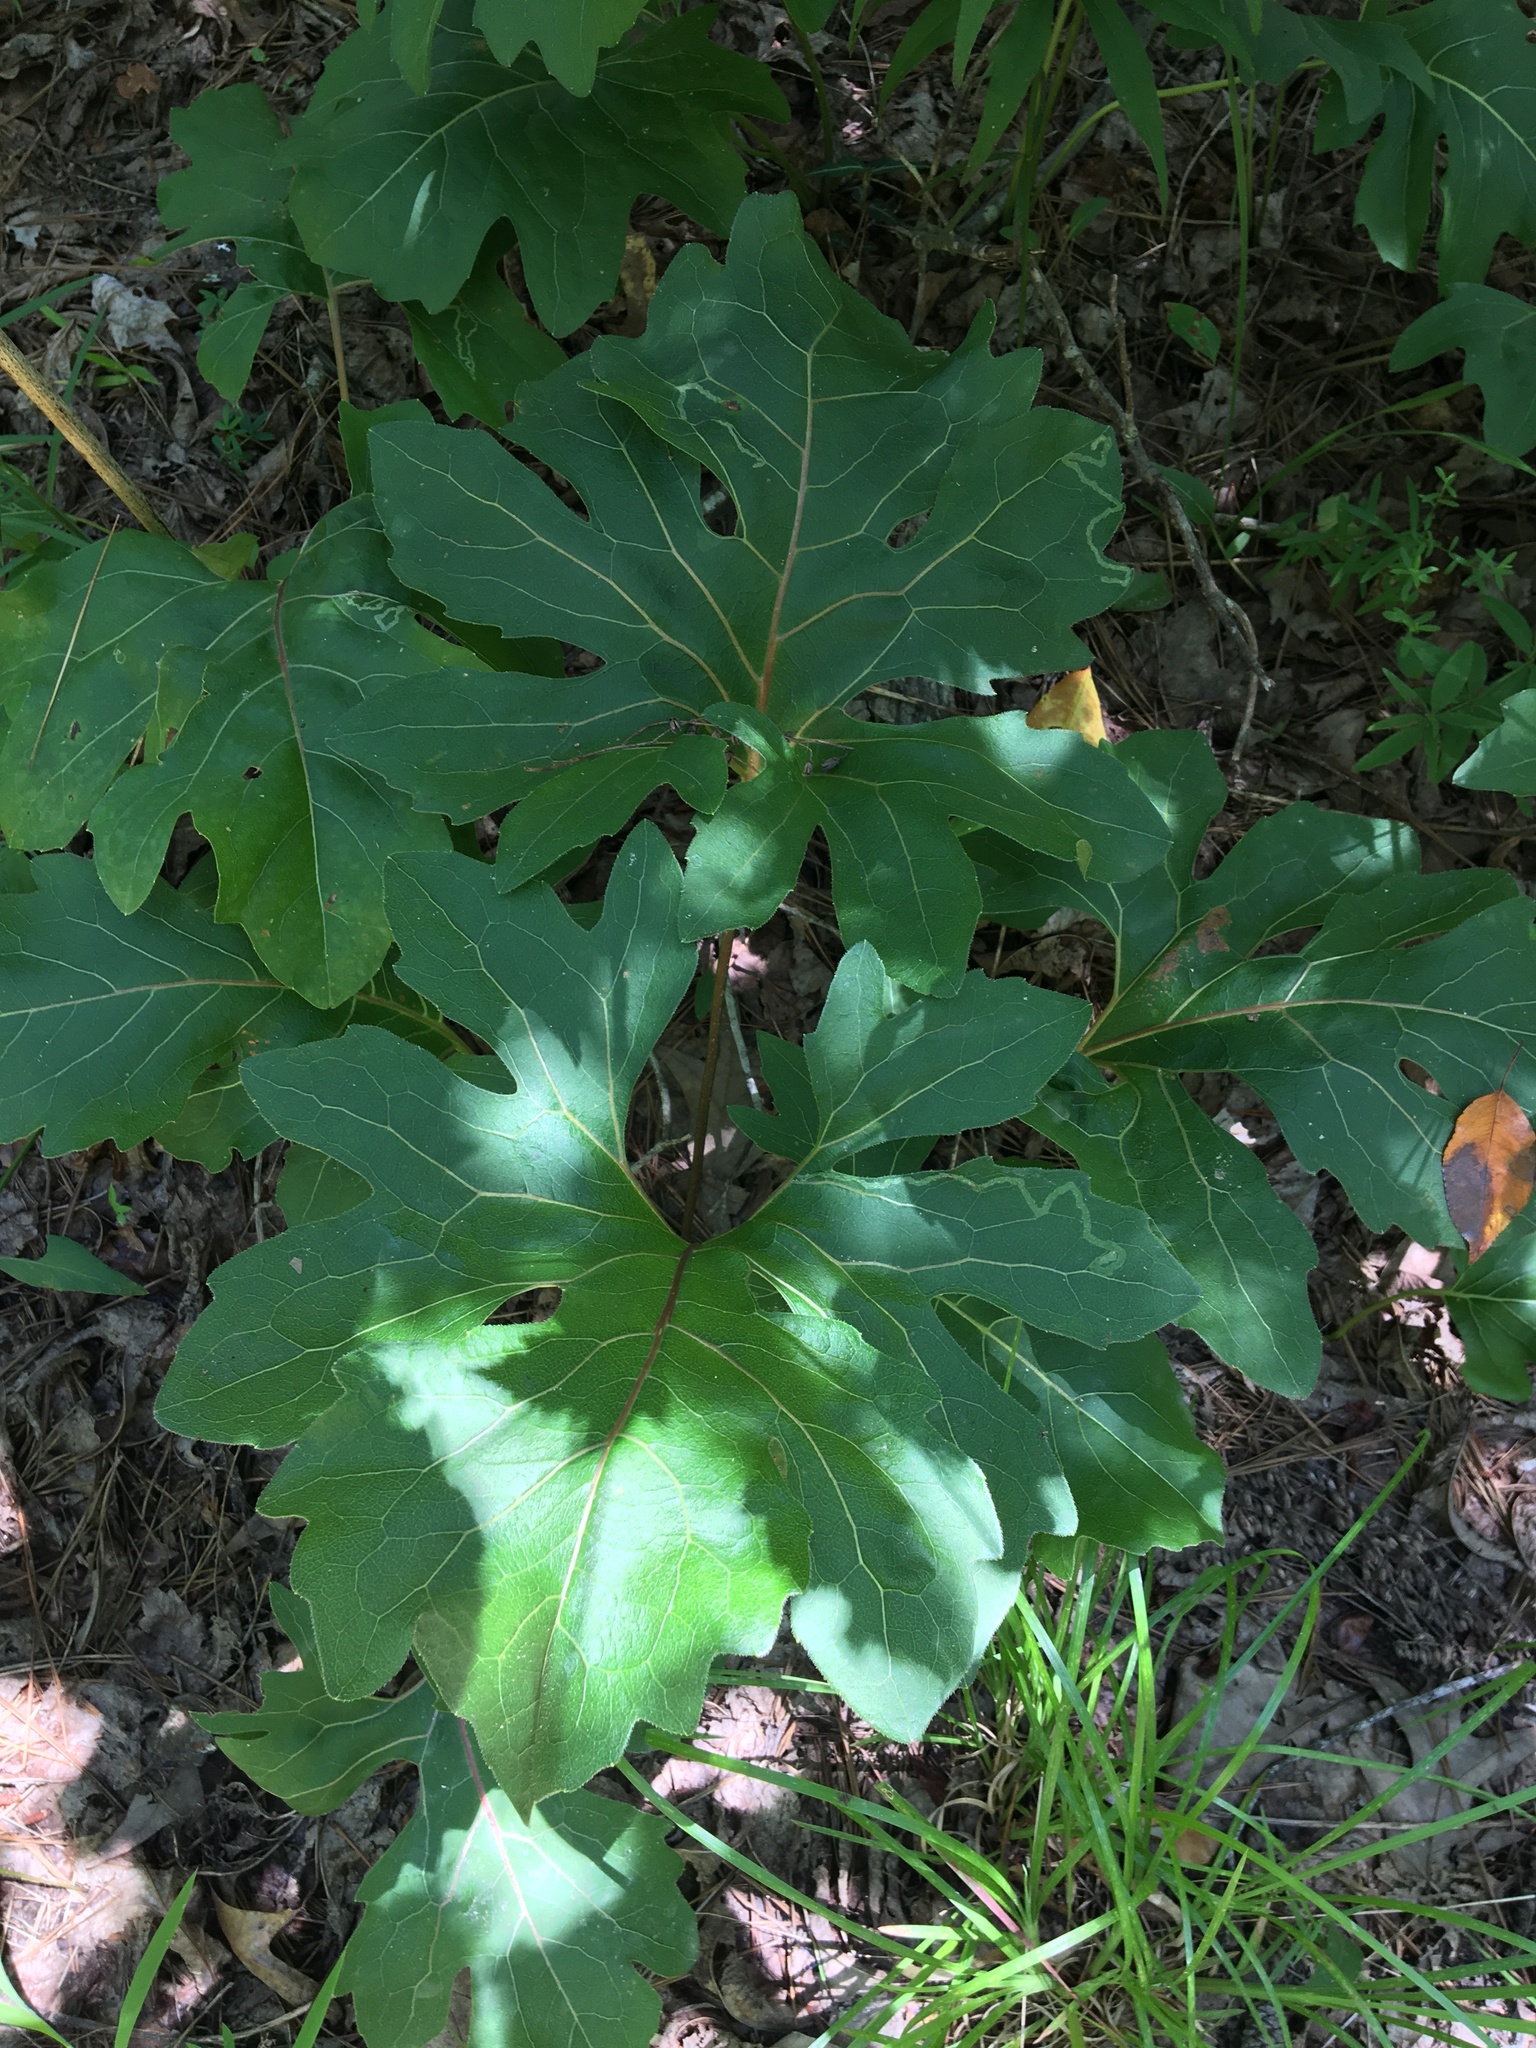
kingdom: Plantae
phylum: Tracheophyta
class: Magnoliopsida
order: Asterales
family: Asteraceae
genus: Silphium
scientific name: Silphium compositum
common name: Lesser basal-leaf rosinweed
